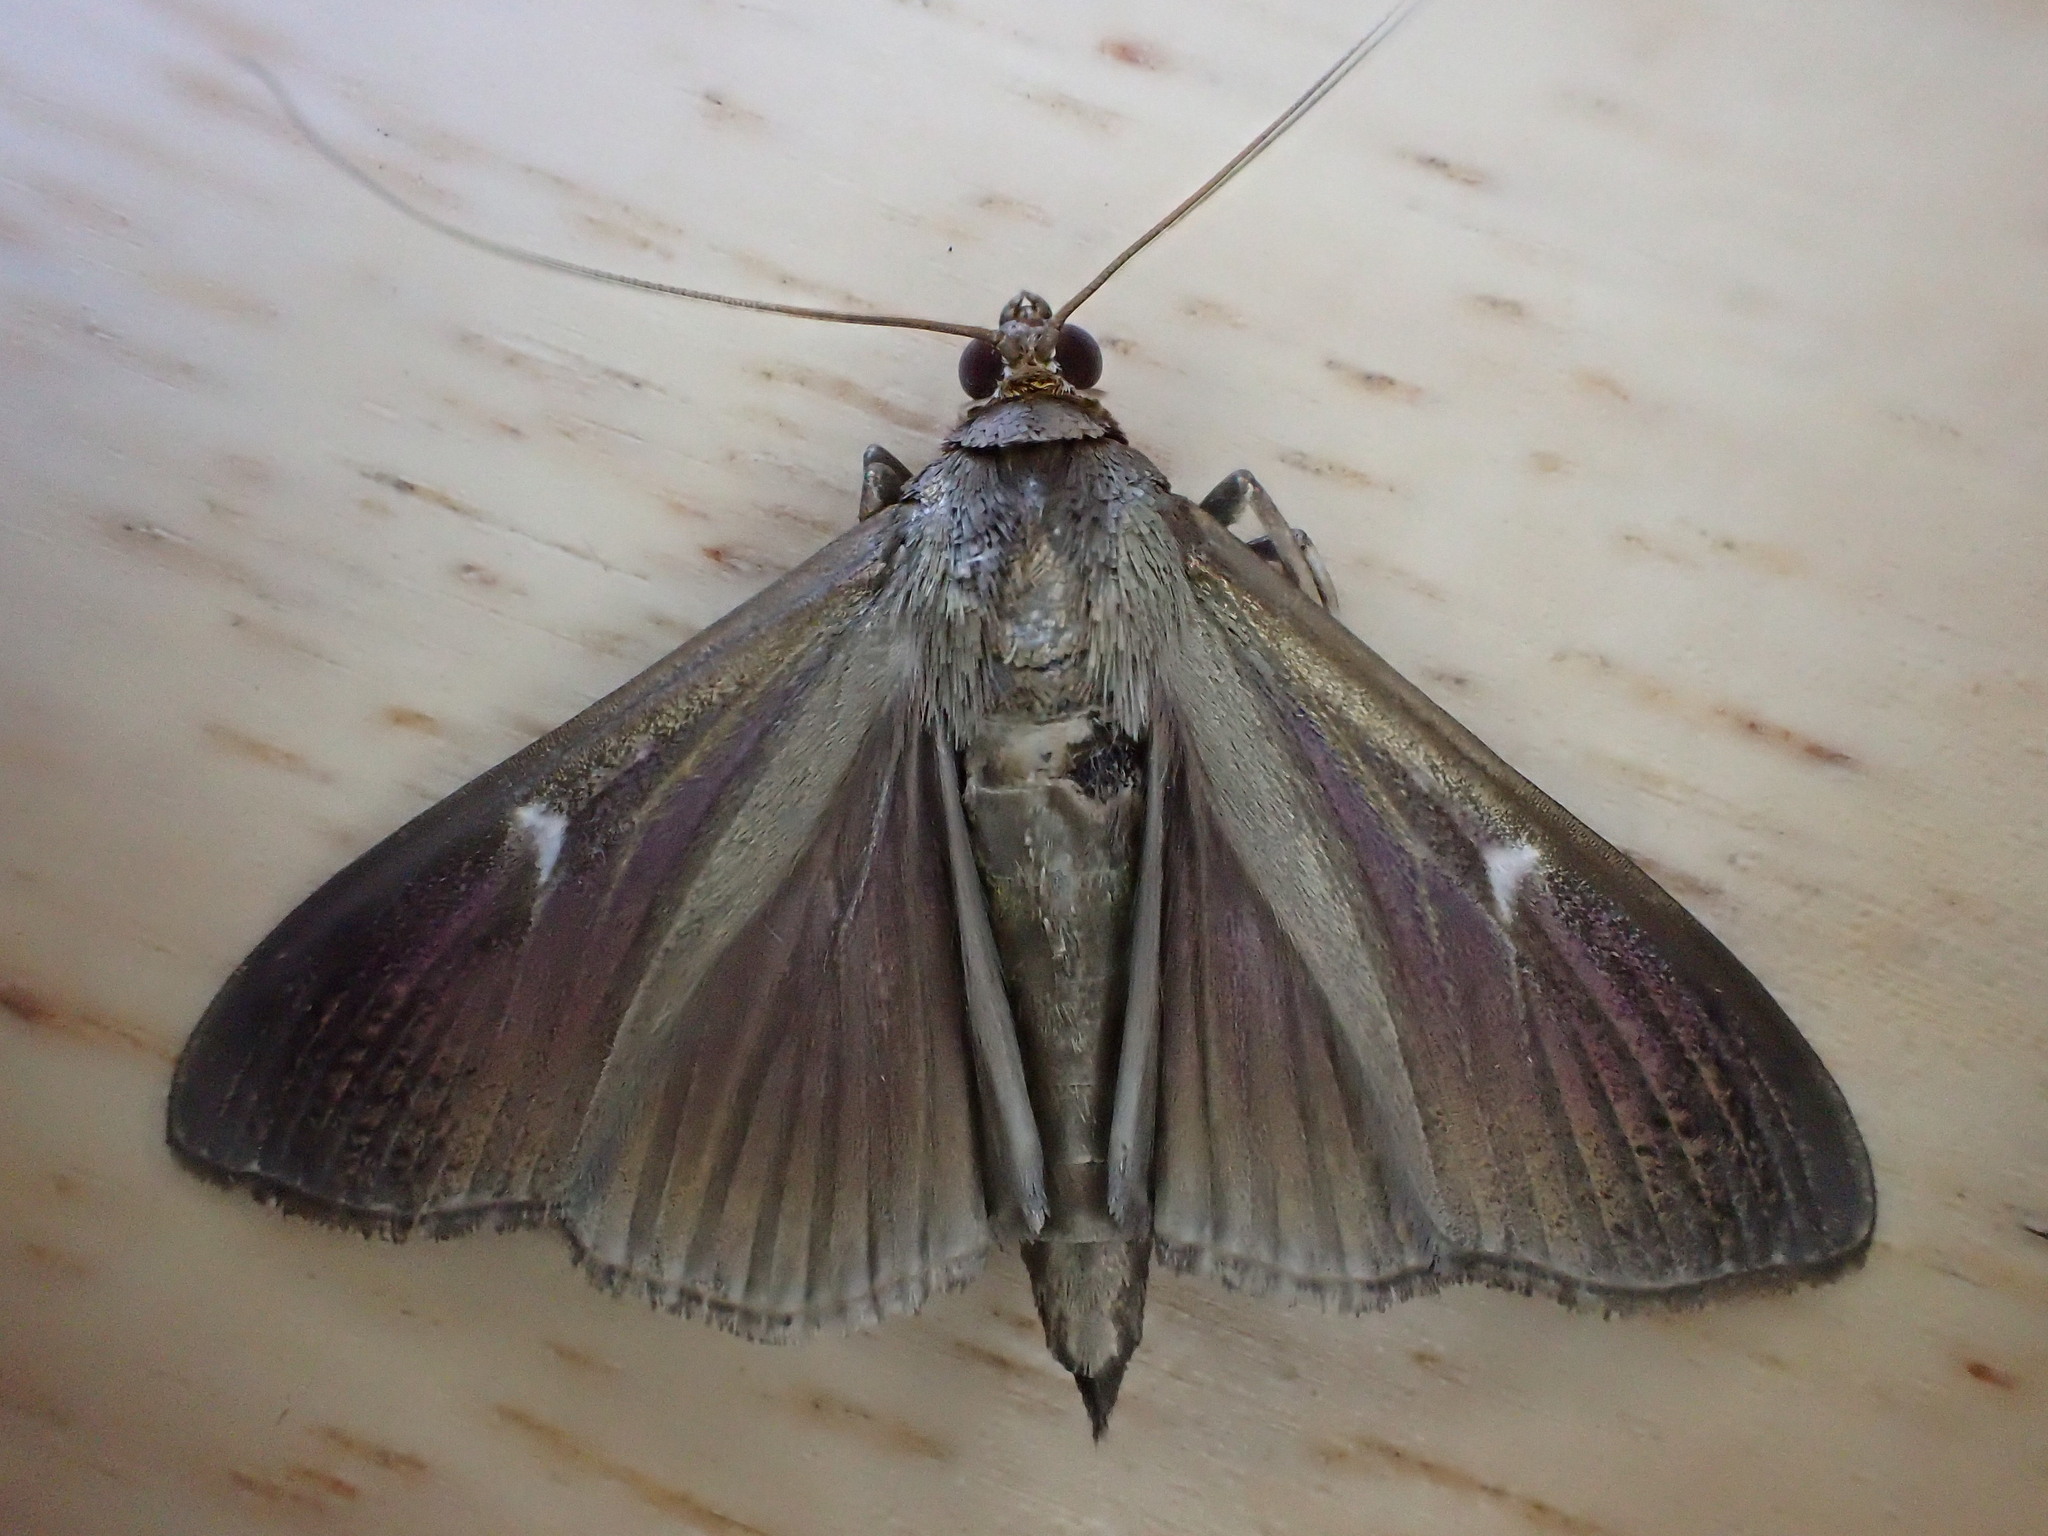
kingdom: Animalia
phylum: Arthropoda
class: Insecta
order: Lepidoptera
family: Crambidae
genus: Cydalima
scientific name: Cydalima perspectalis
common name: Box tree moth
